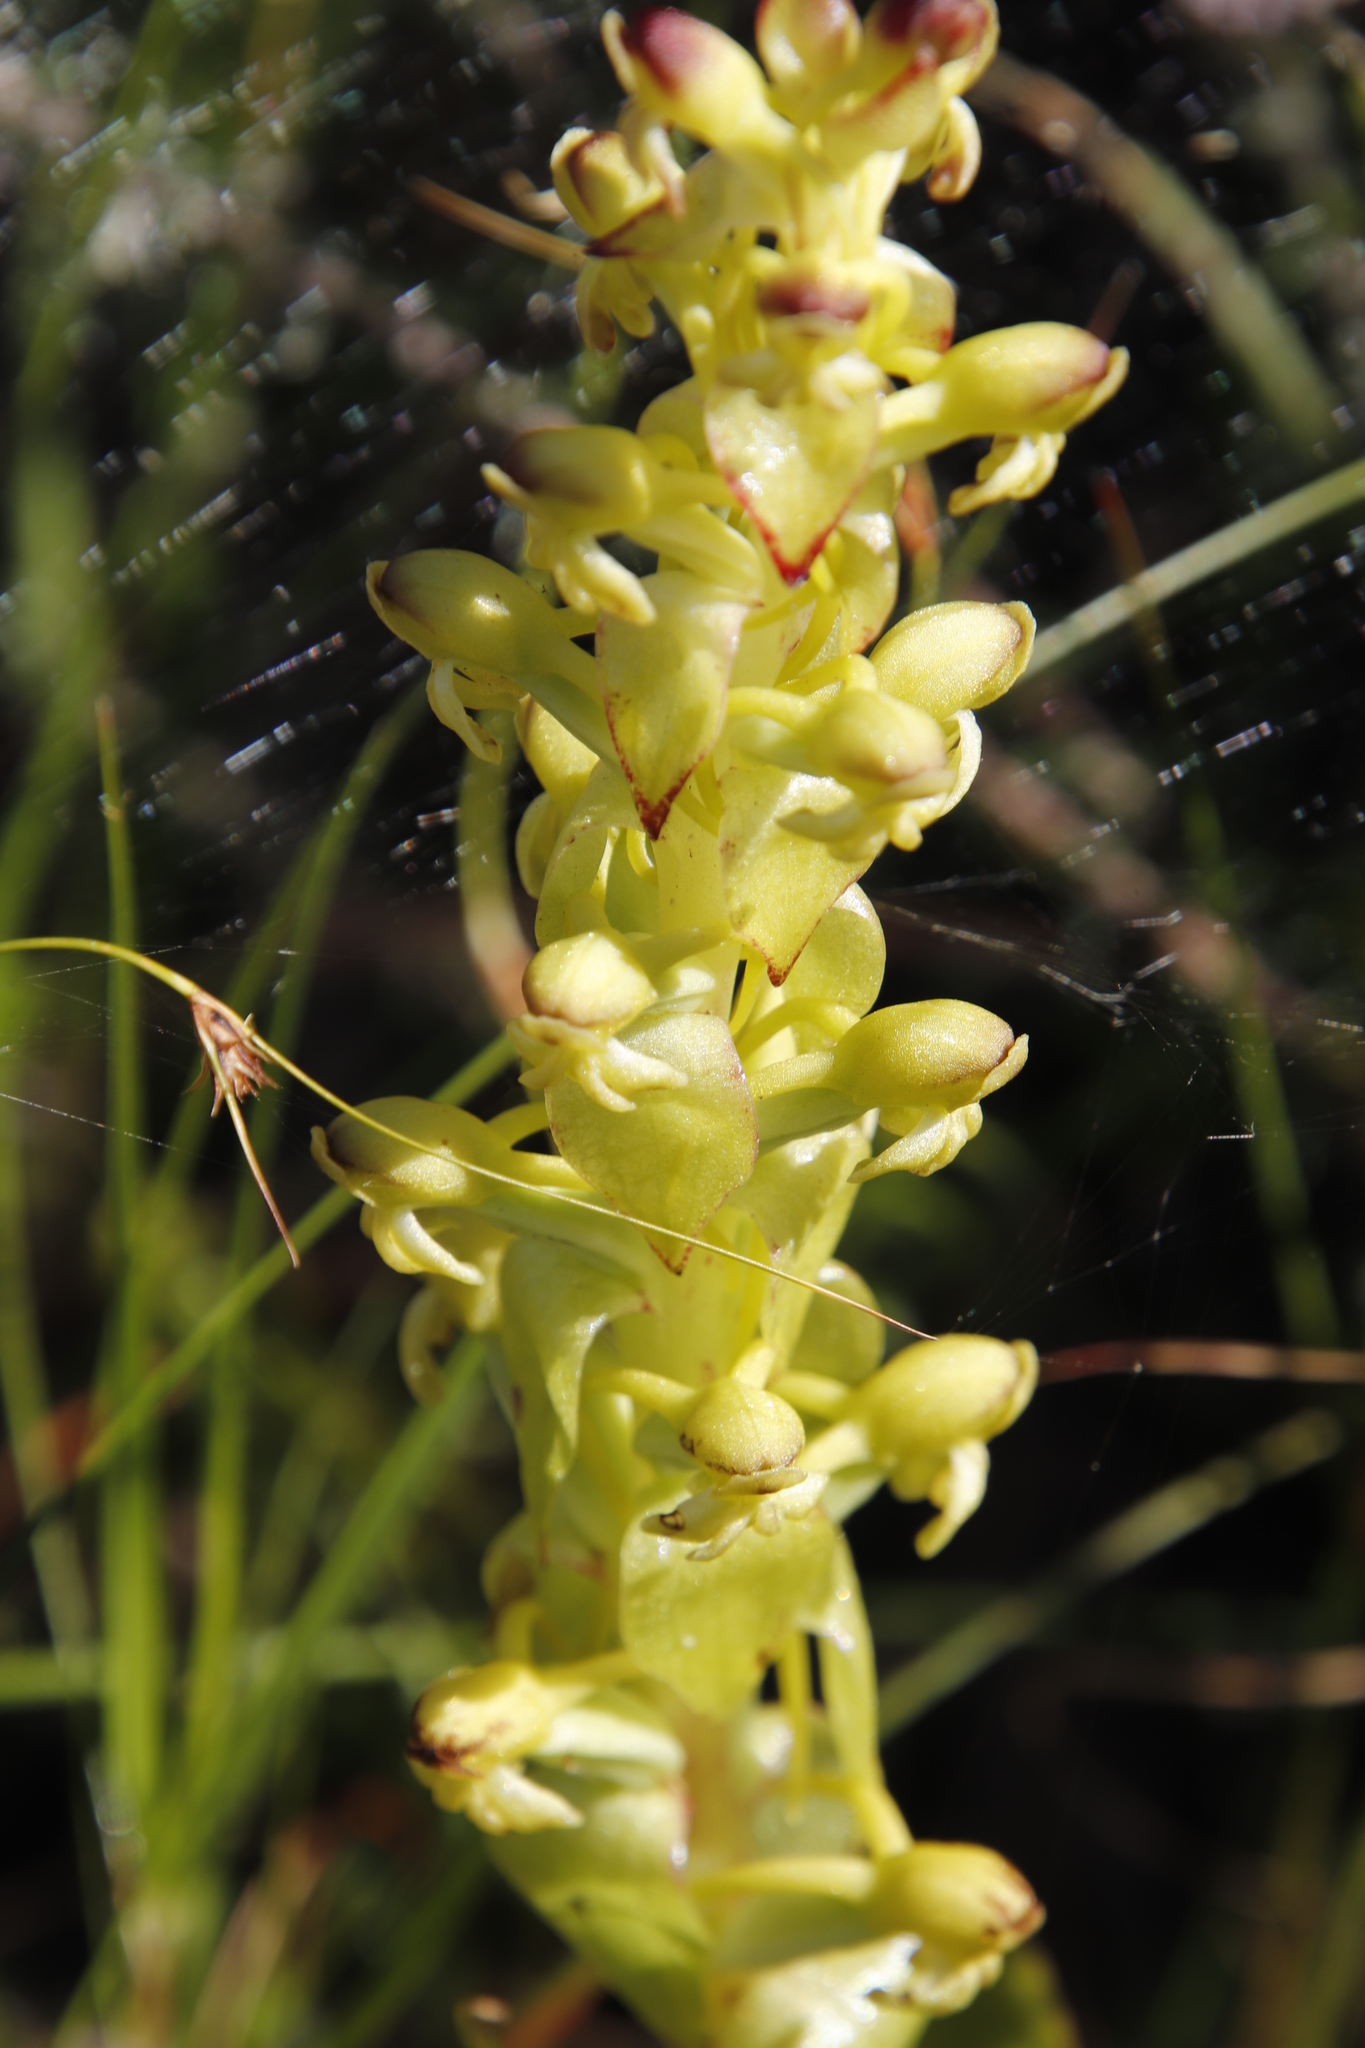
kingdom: Plantae
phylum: Tracheophyta
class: Liliopsida
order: Asparagales
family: Orchidaceae
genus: Satyrium
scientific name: Satyrium odorum
